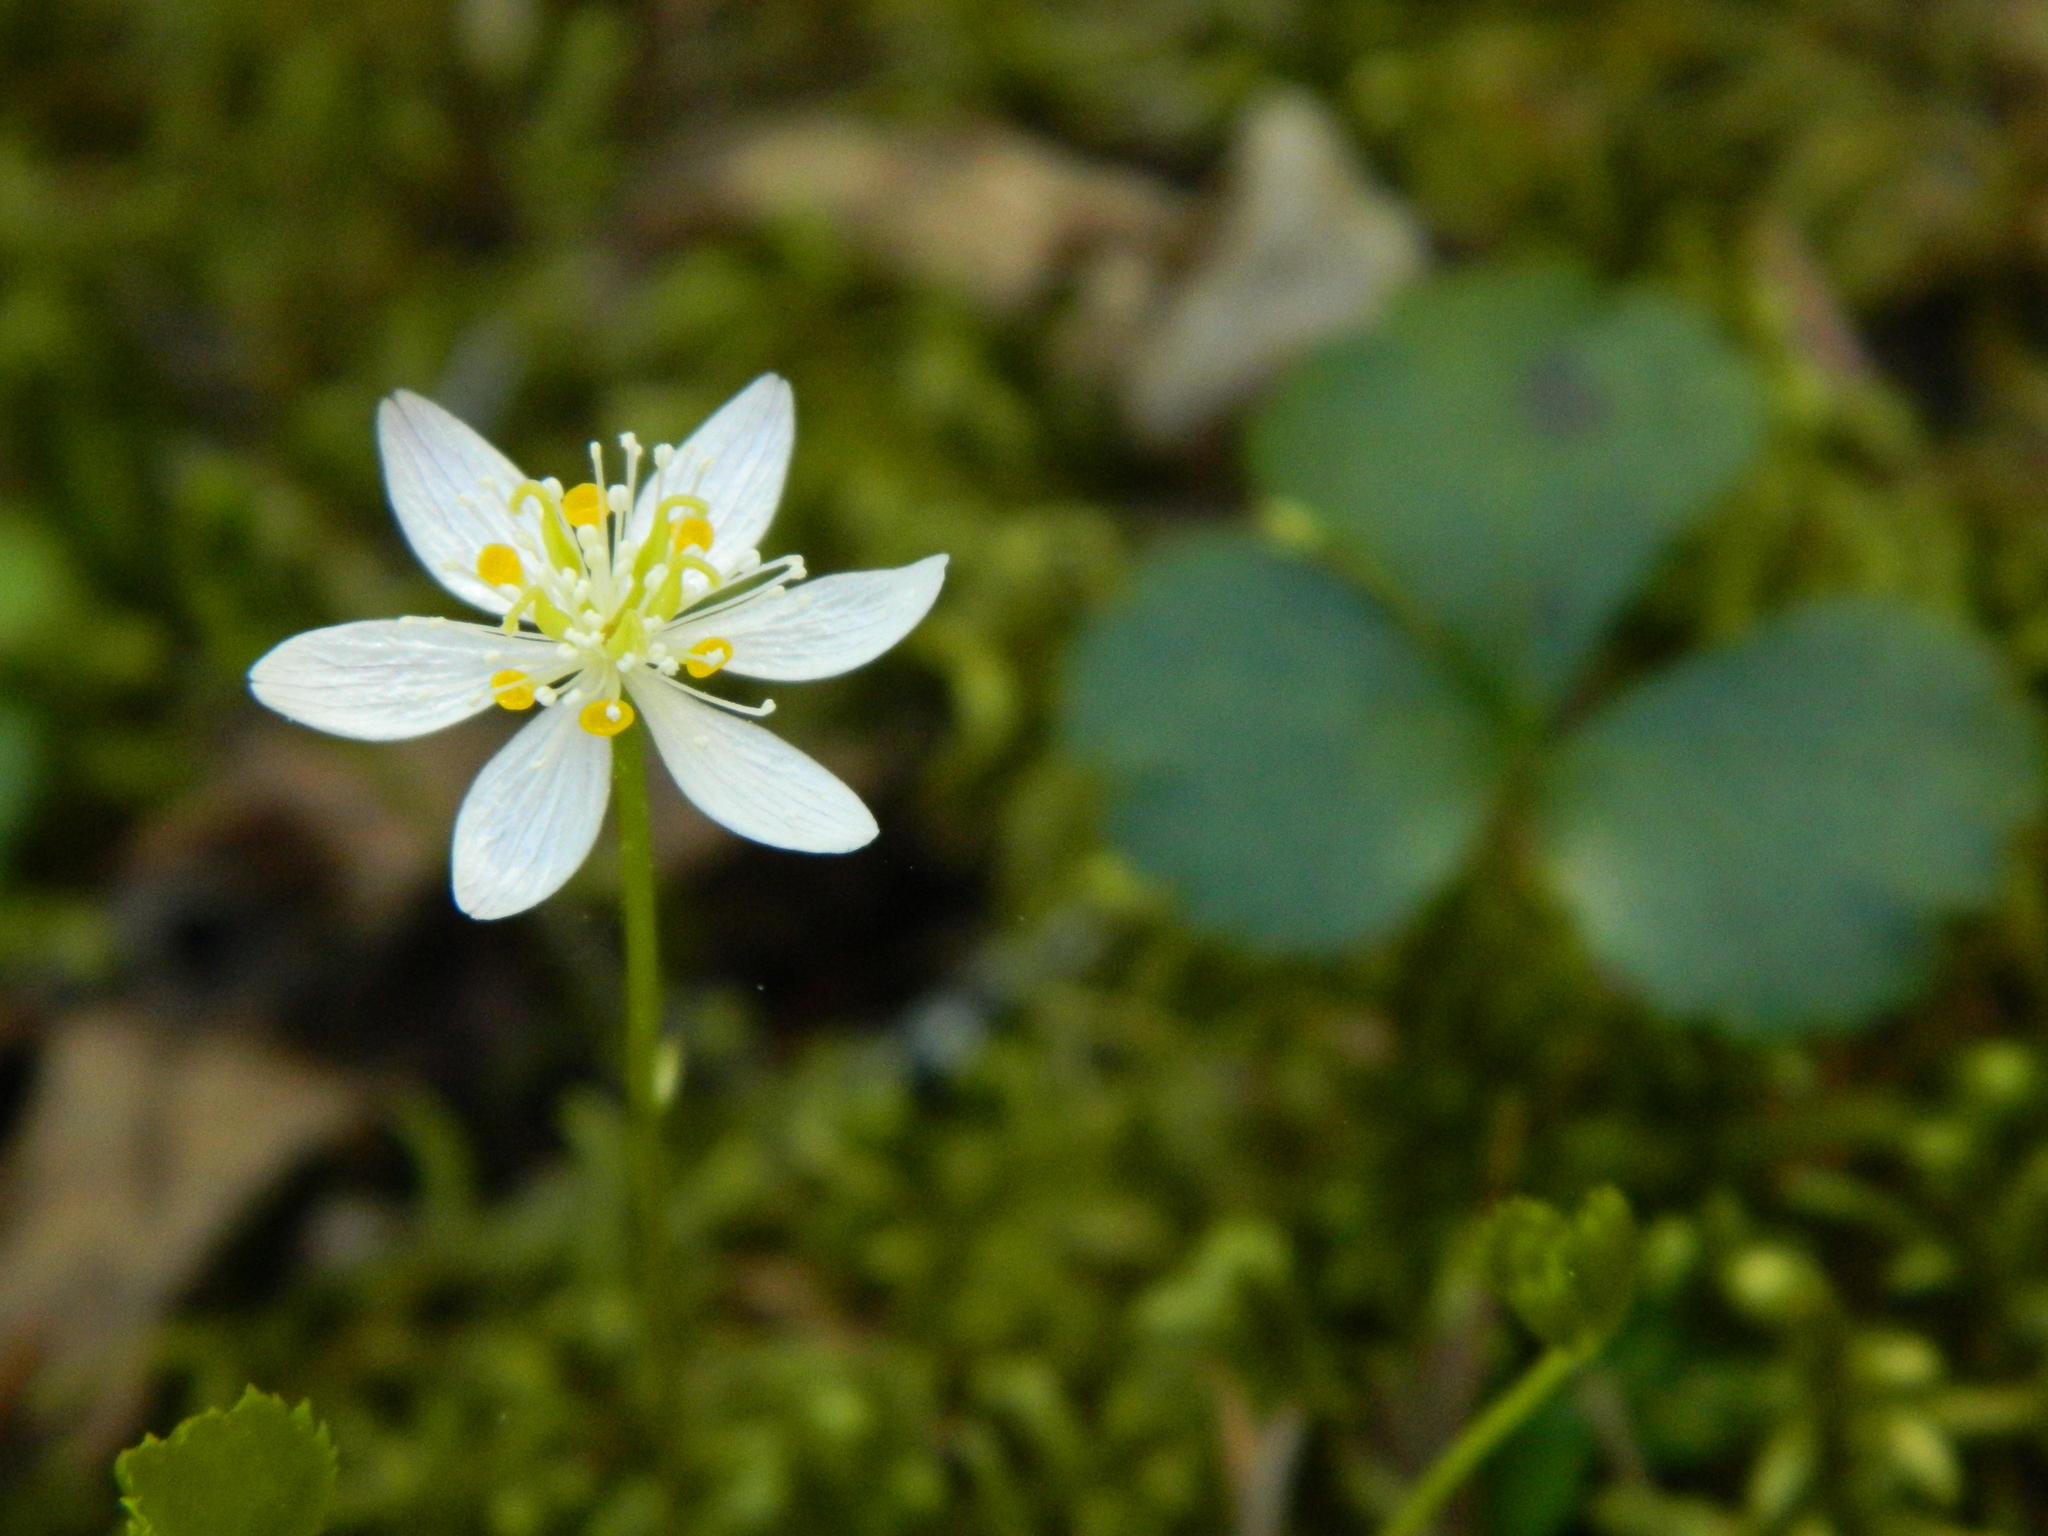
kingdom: Plantae
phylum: Tracheophyta
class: Magnoliopsida
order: Ranunculales
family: Ranunculaceae
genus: Coptis
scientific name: Coptis trifolia
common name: Canker-root
